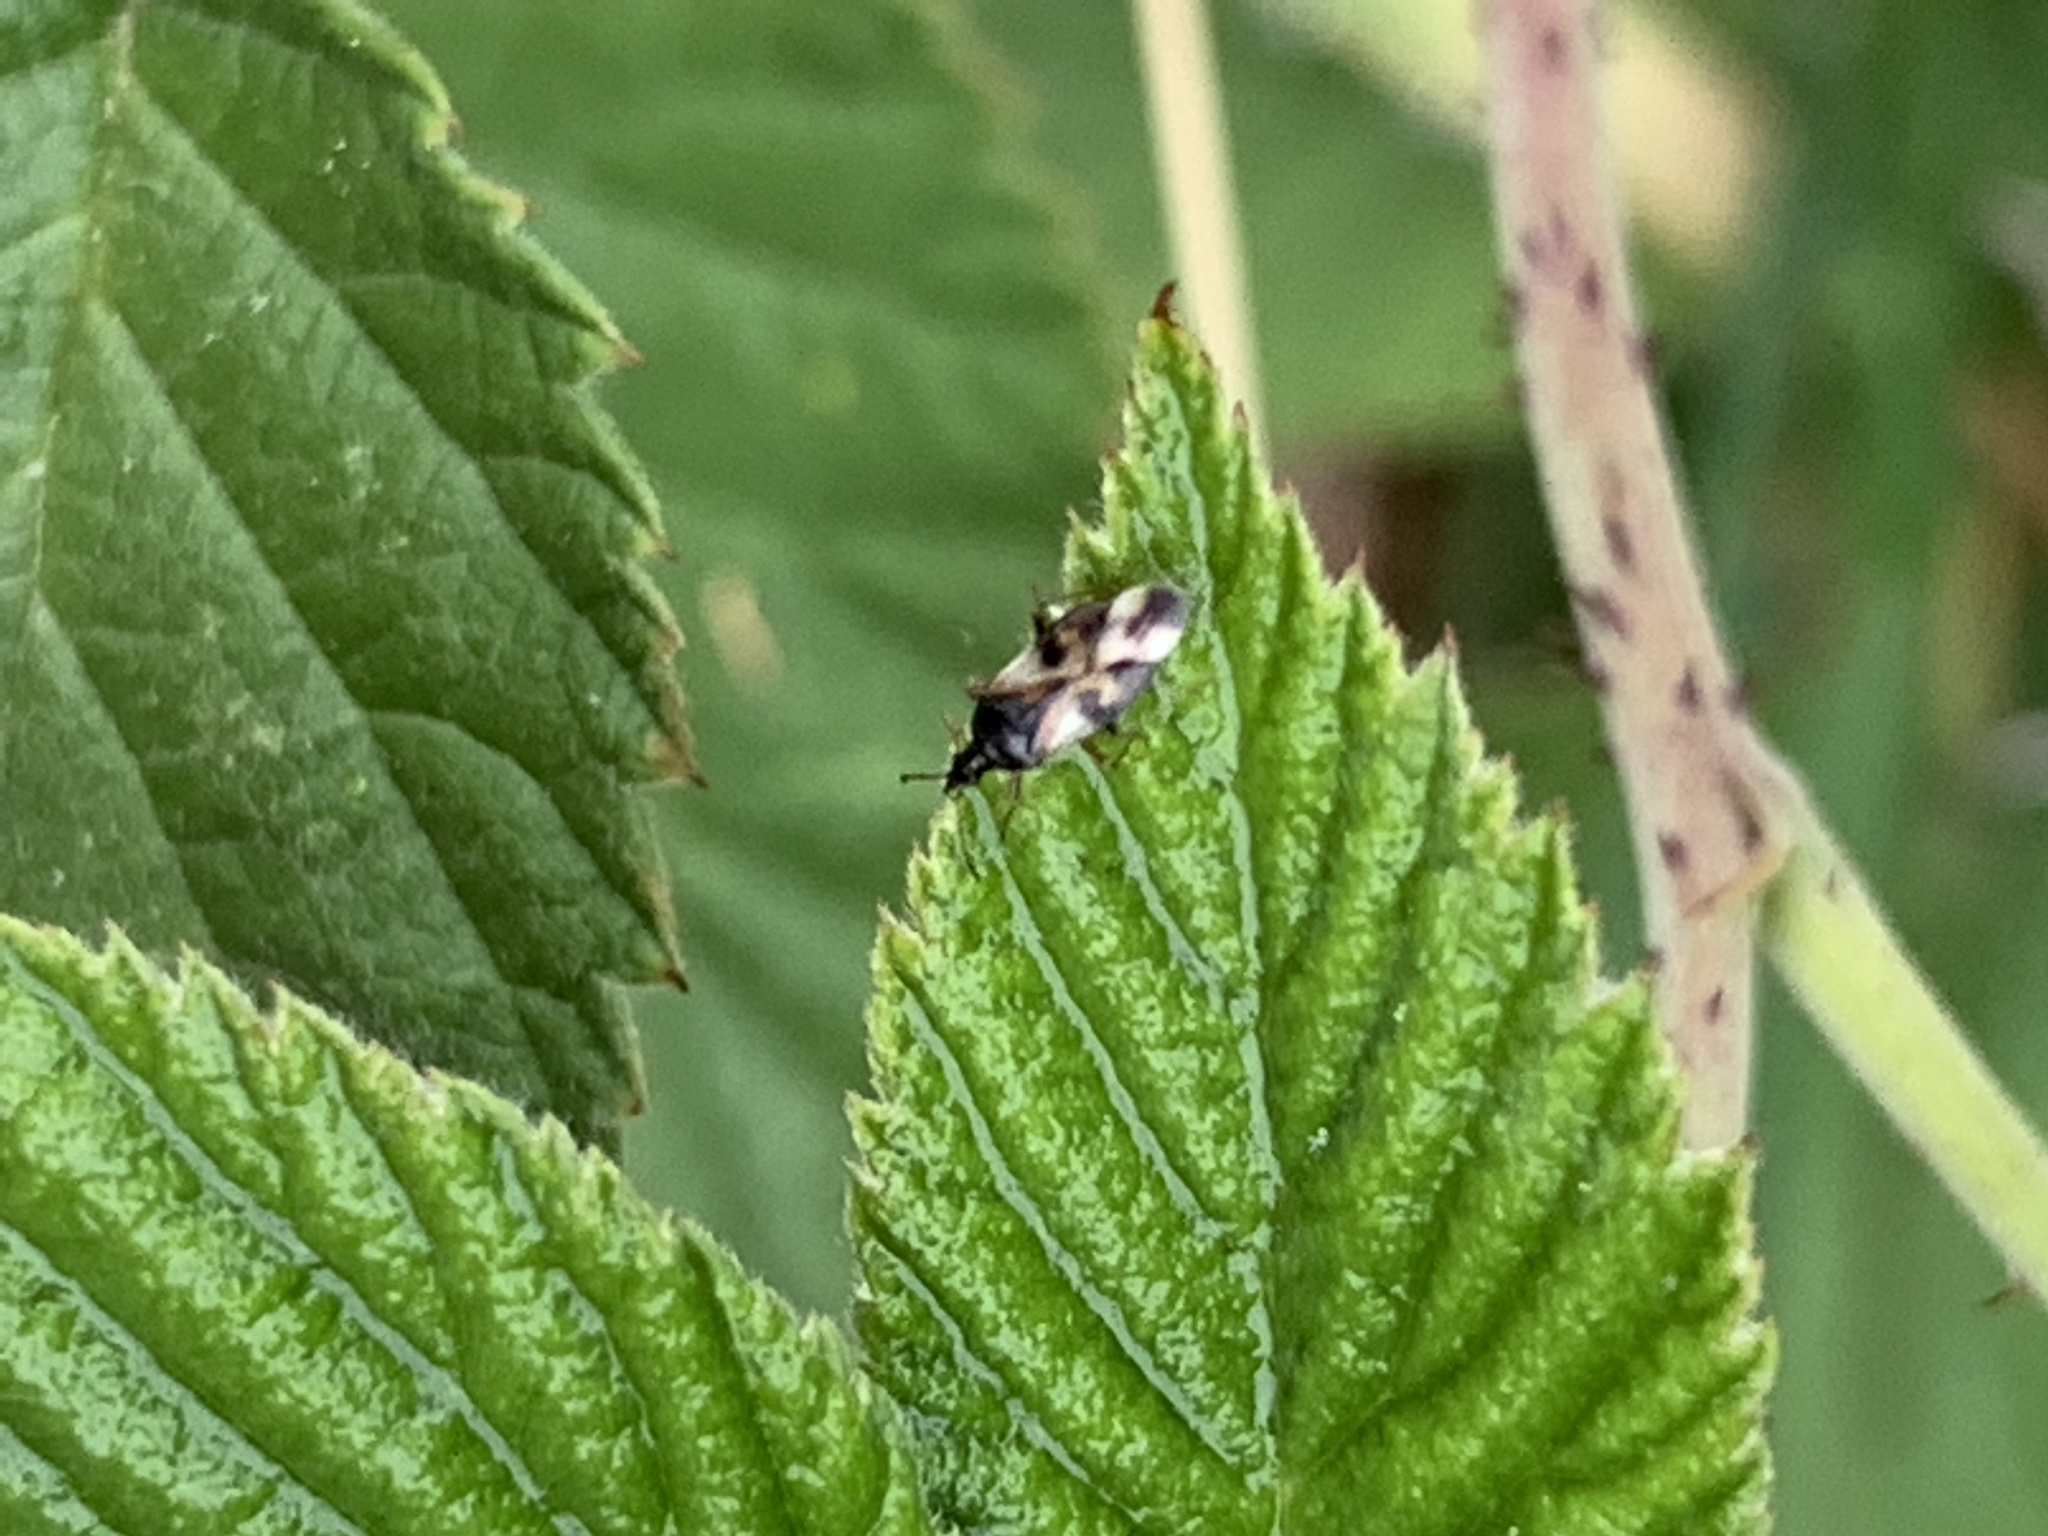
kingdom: Animalia
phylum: Arthropoda
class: Insecta
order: Hemiptera
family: Anthocoridae
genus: Anthocoris
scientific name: Anthocoris nemorum
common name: Minute pirate bug
